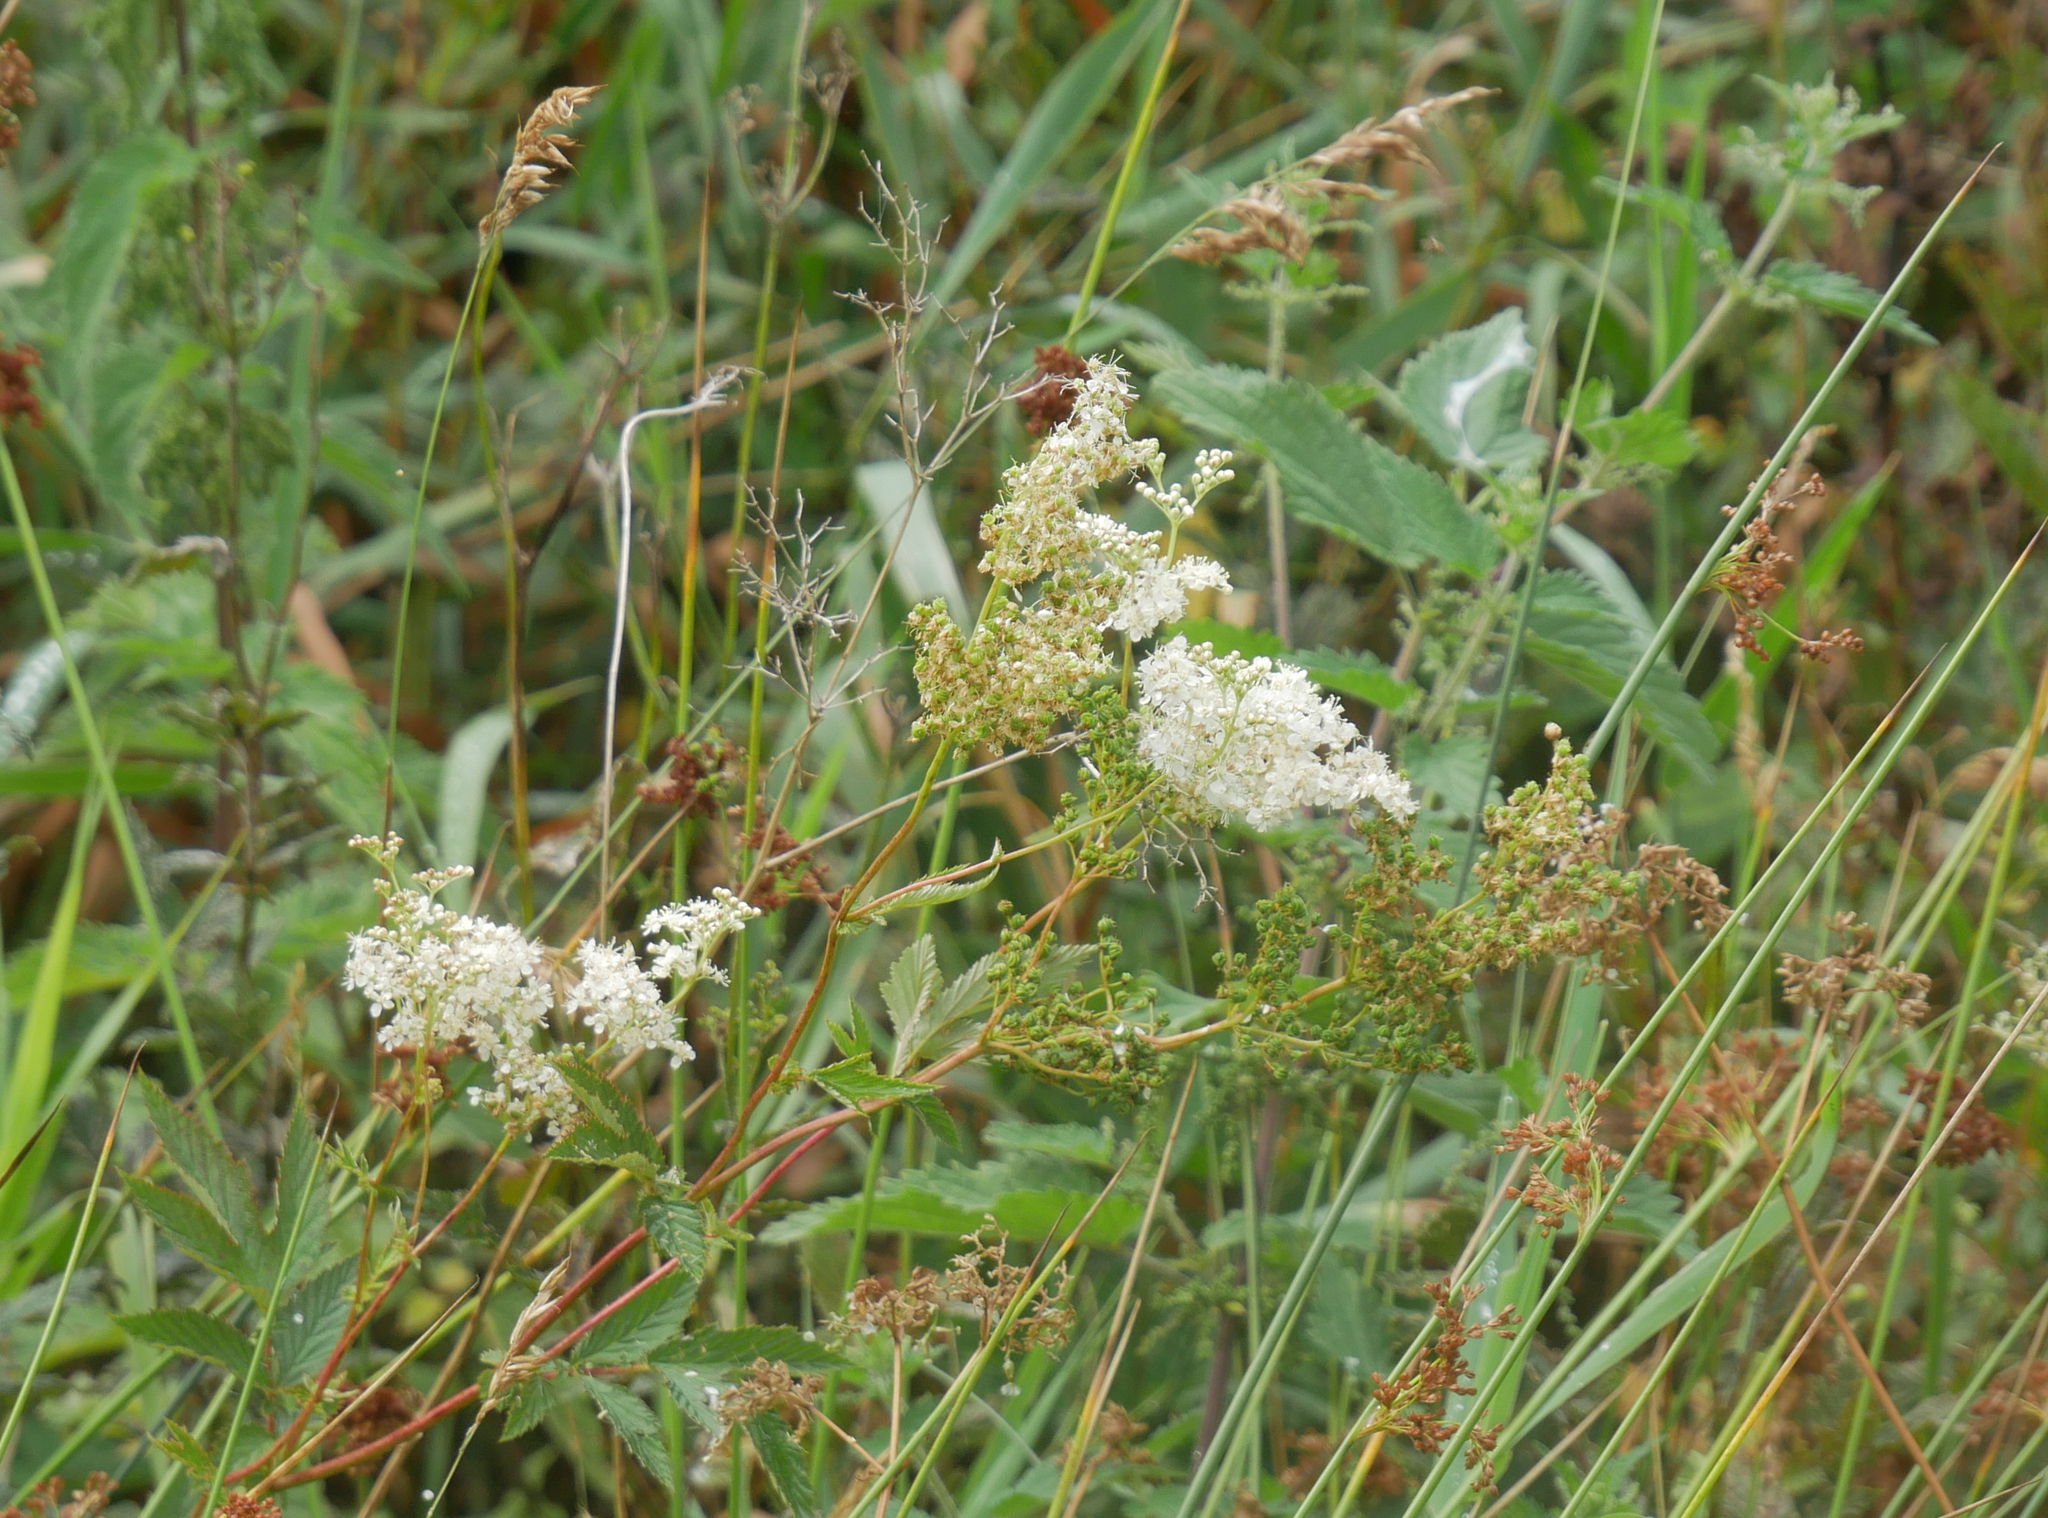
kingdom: Plantae
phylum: Tracheophyta
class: Magnoliopsida
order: Rosales
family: Rosaceae
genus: Filipendula
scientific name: Filipendula ulmaria
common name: Meadowsweet
